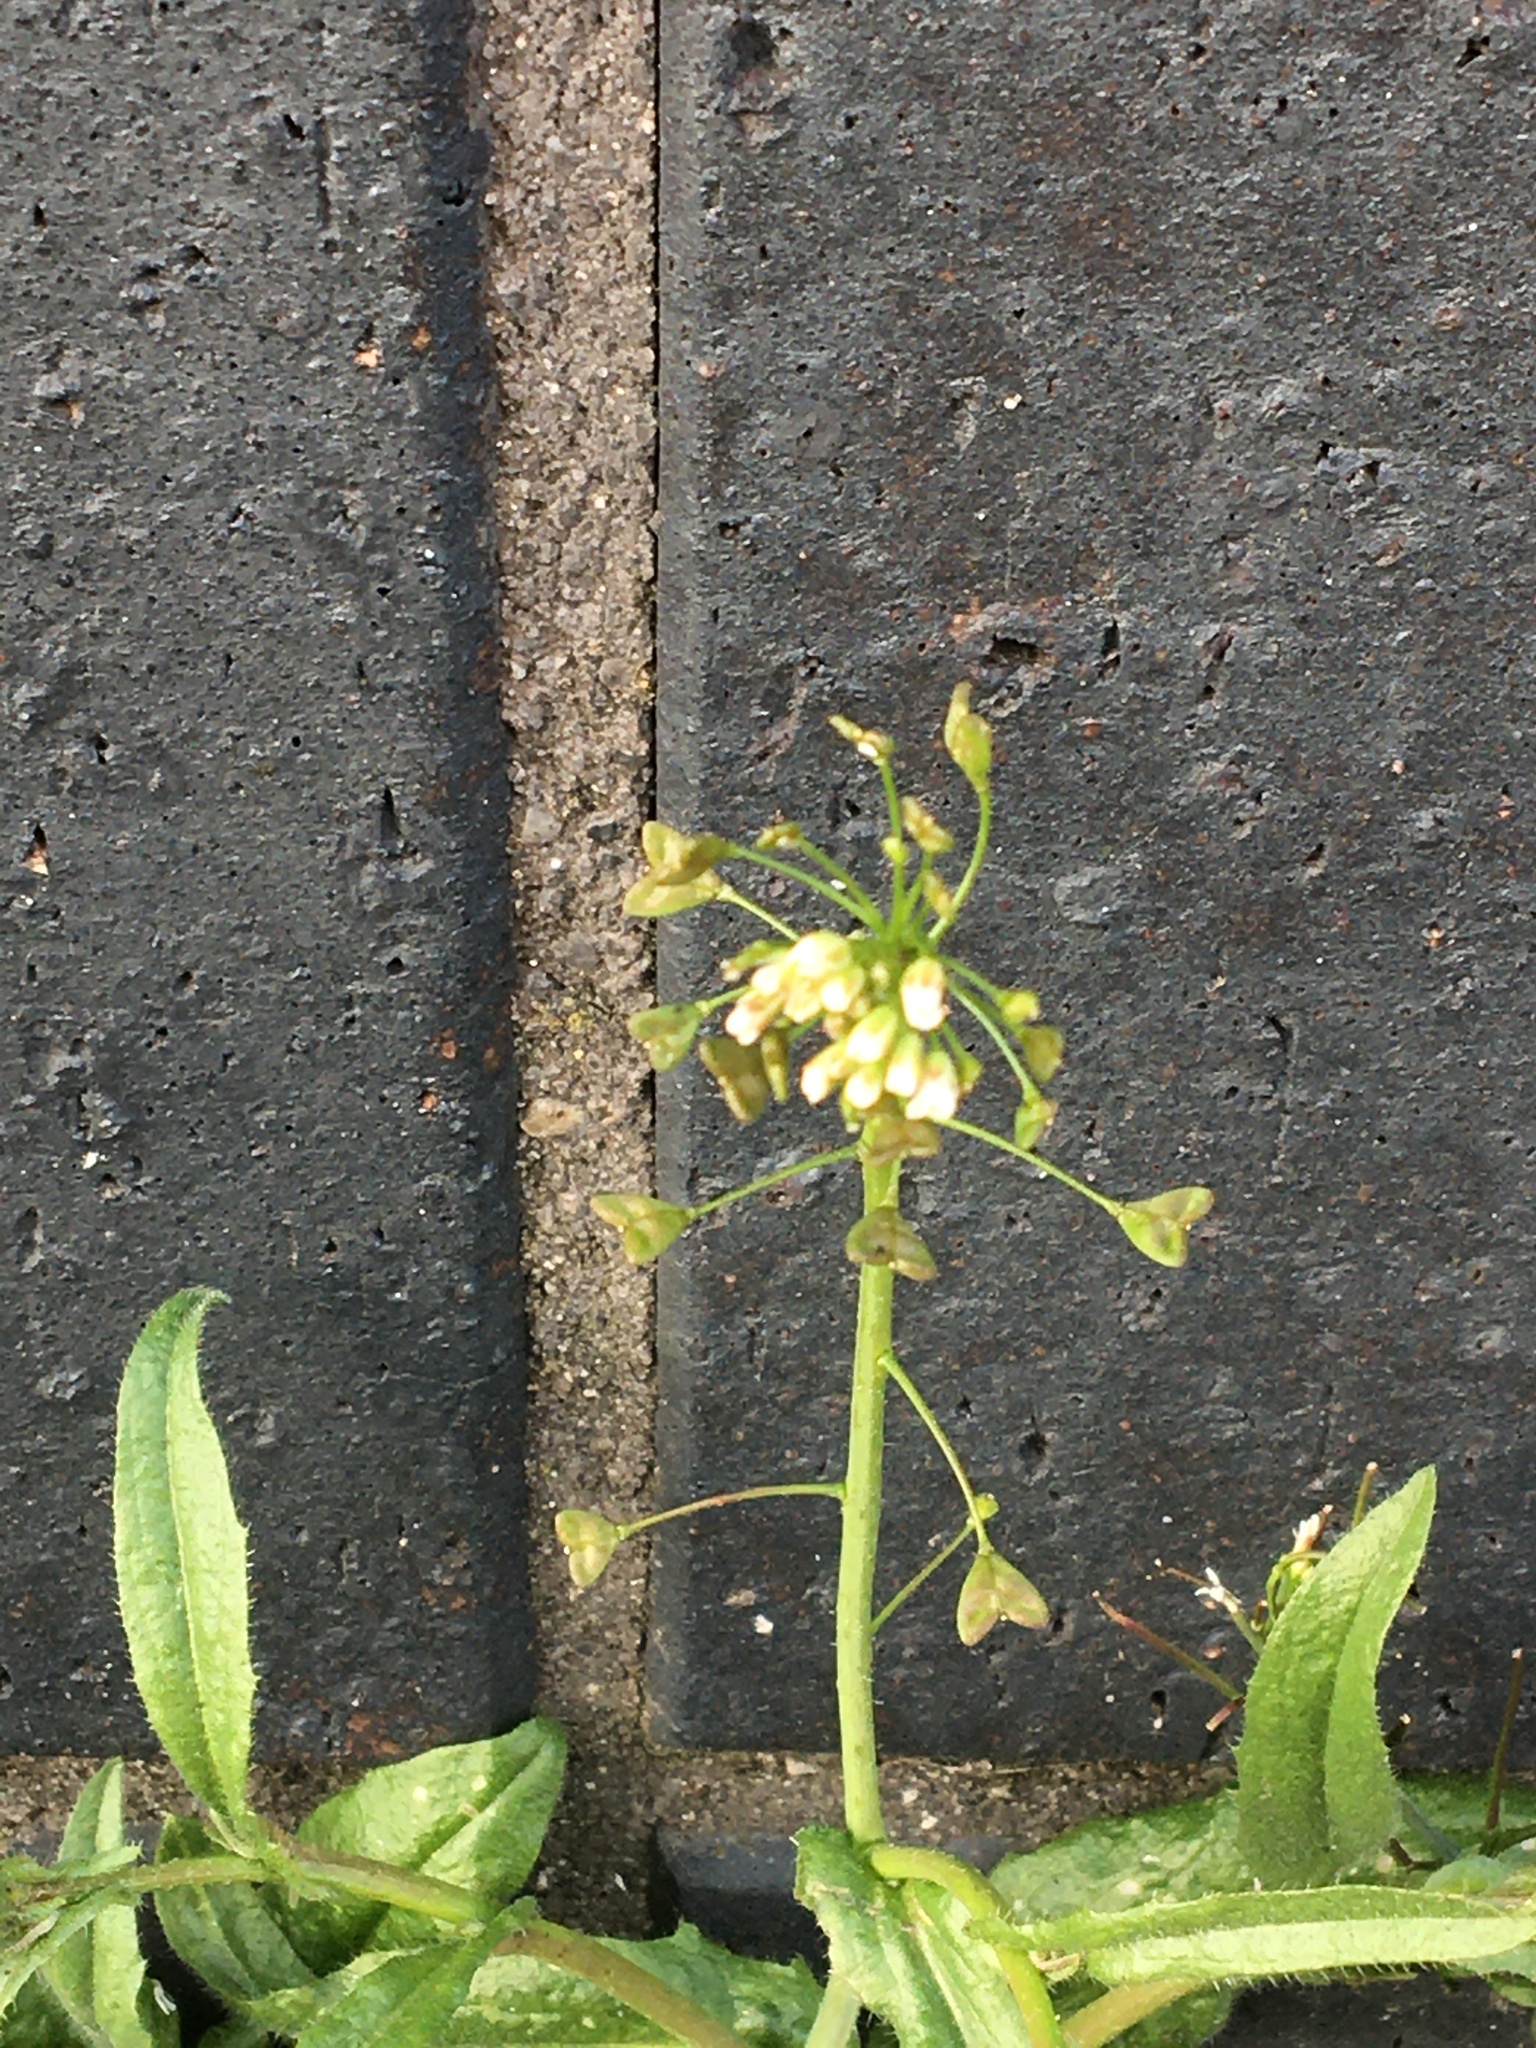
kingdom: Plantae
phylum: Tracheophyta
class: Magnoliopsida
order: Brassicales
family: Brassicaceae
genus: Capsella
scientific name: Capsella bursa-pastoris
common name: Shepherd's purse
